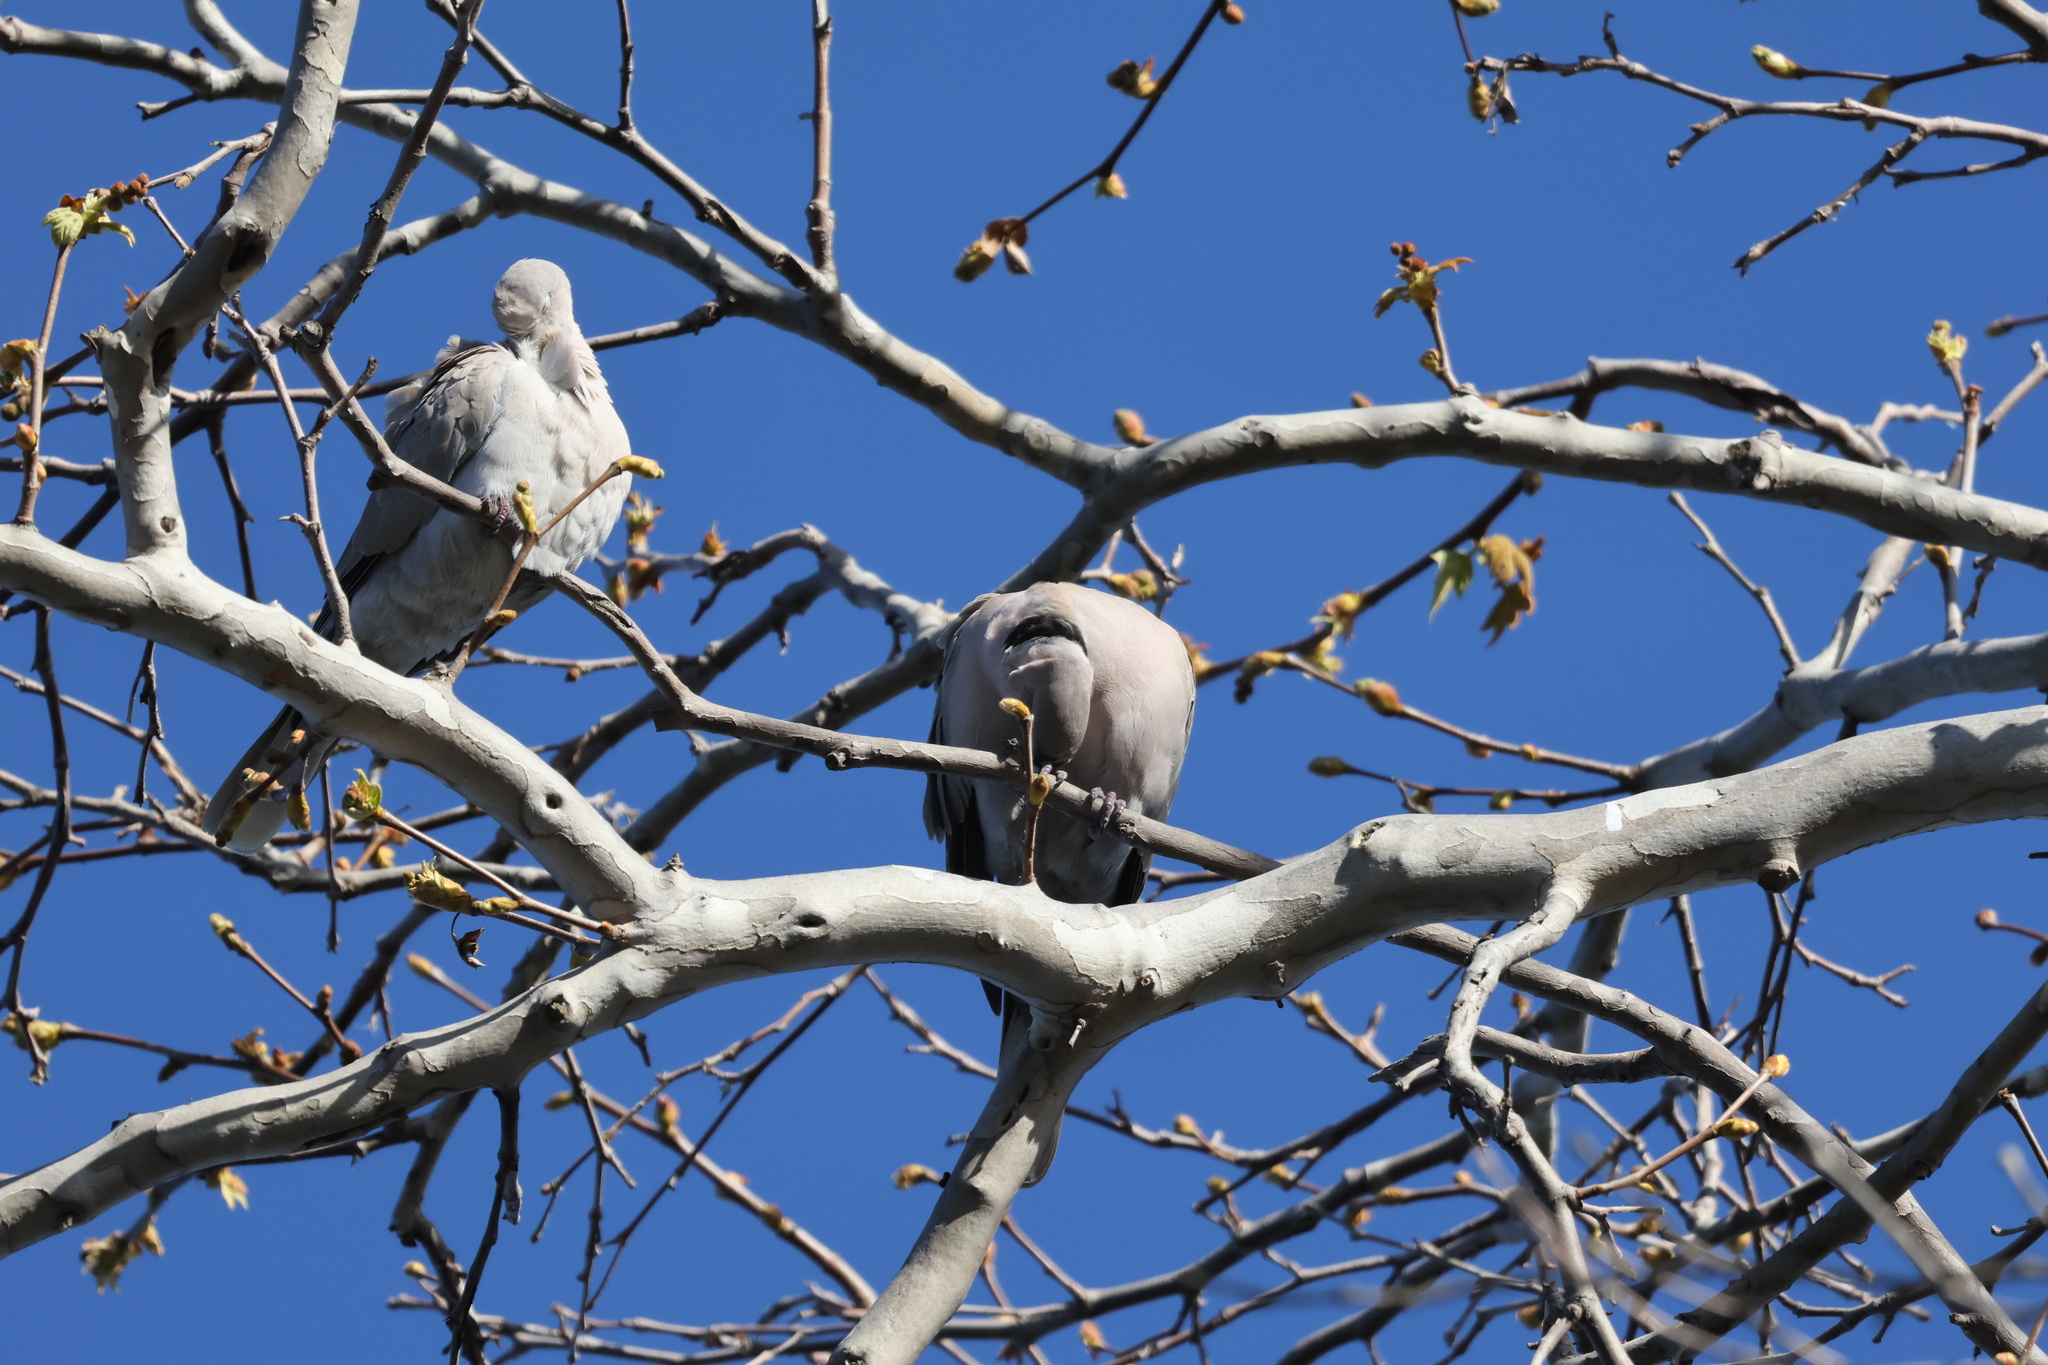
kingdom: Animalia
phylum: Chordata
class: Aves
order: Columbiformes
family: Columbidae
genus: Streptopelia
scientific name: Streptopelia decaocto
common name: Eurasian collared dove
